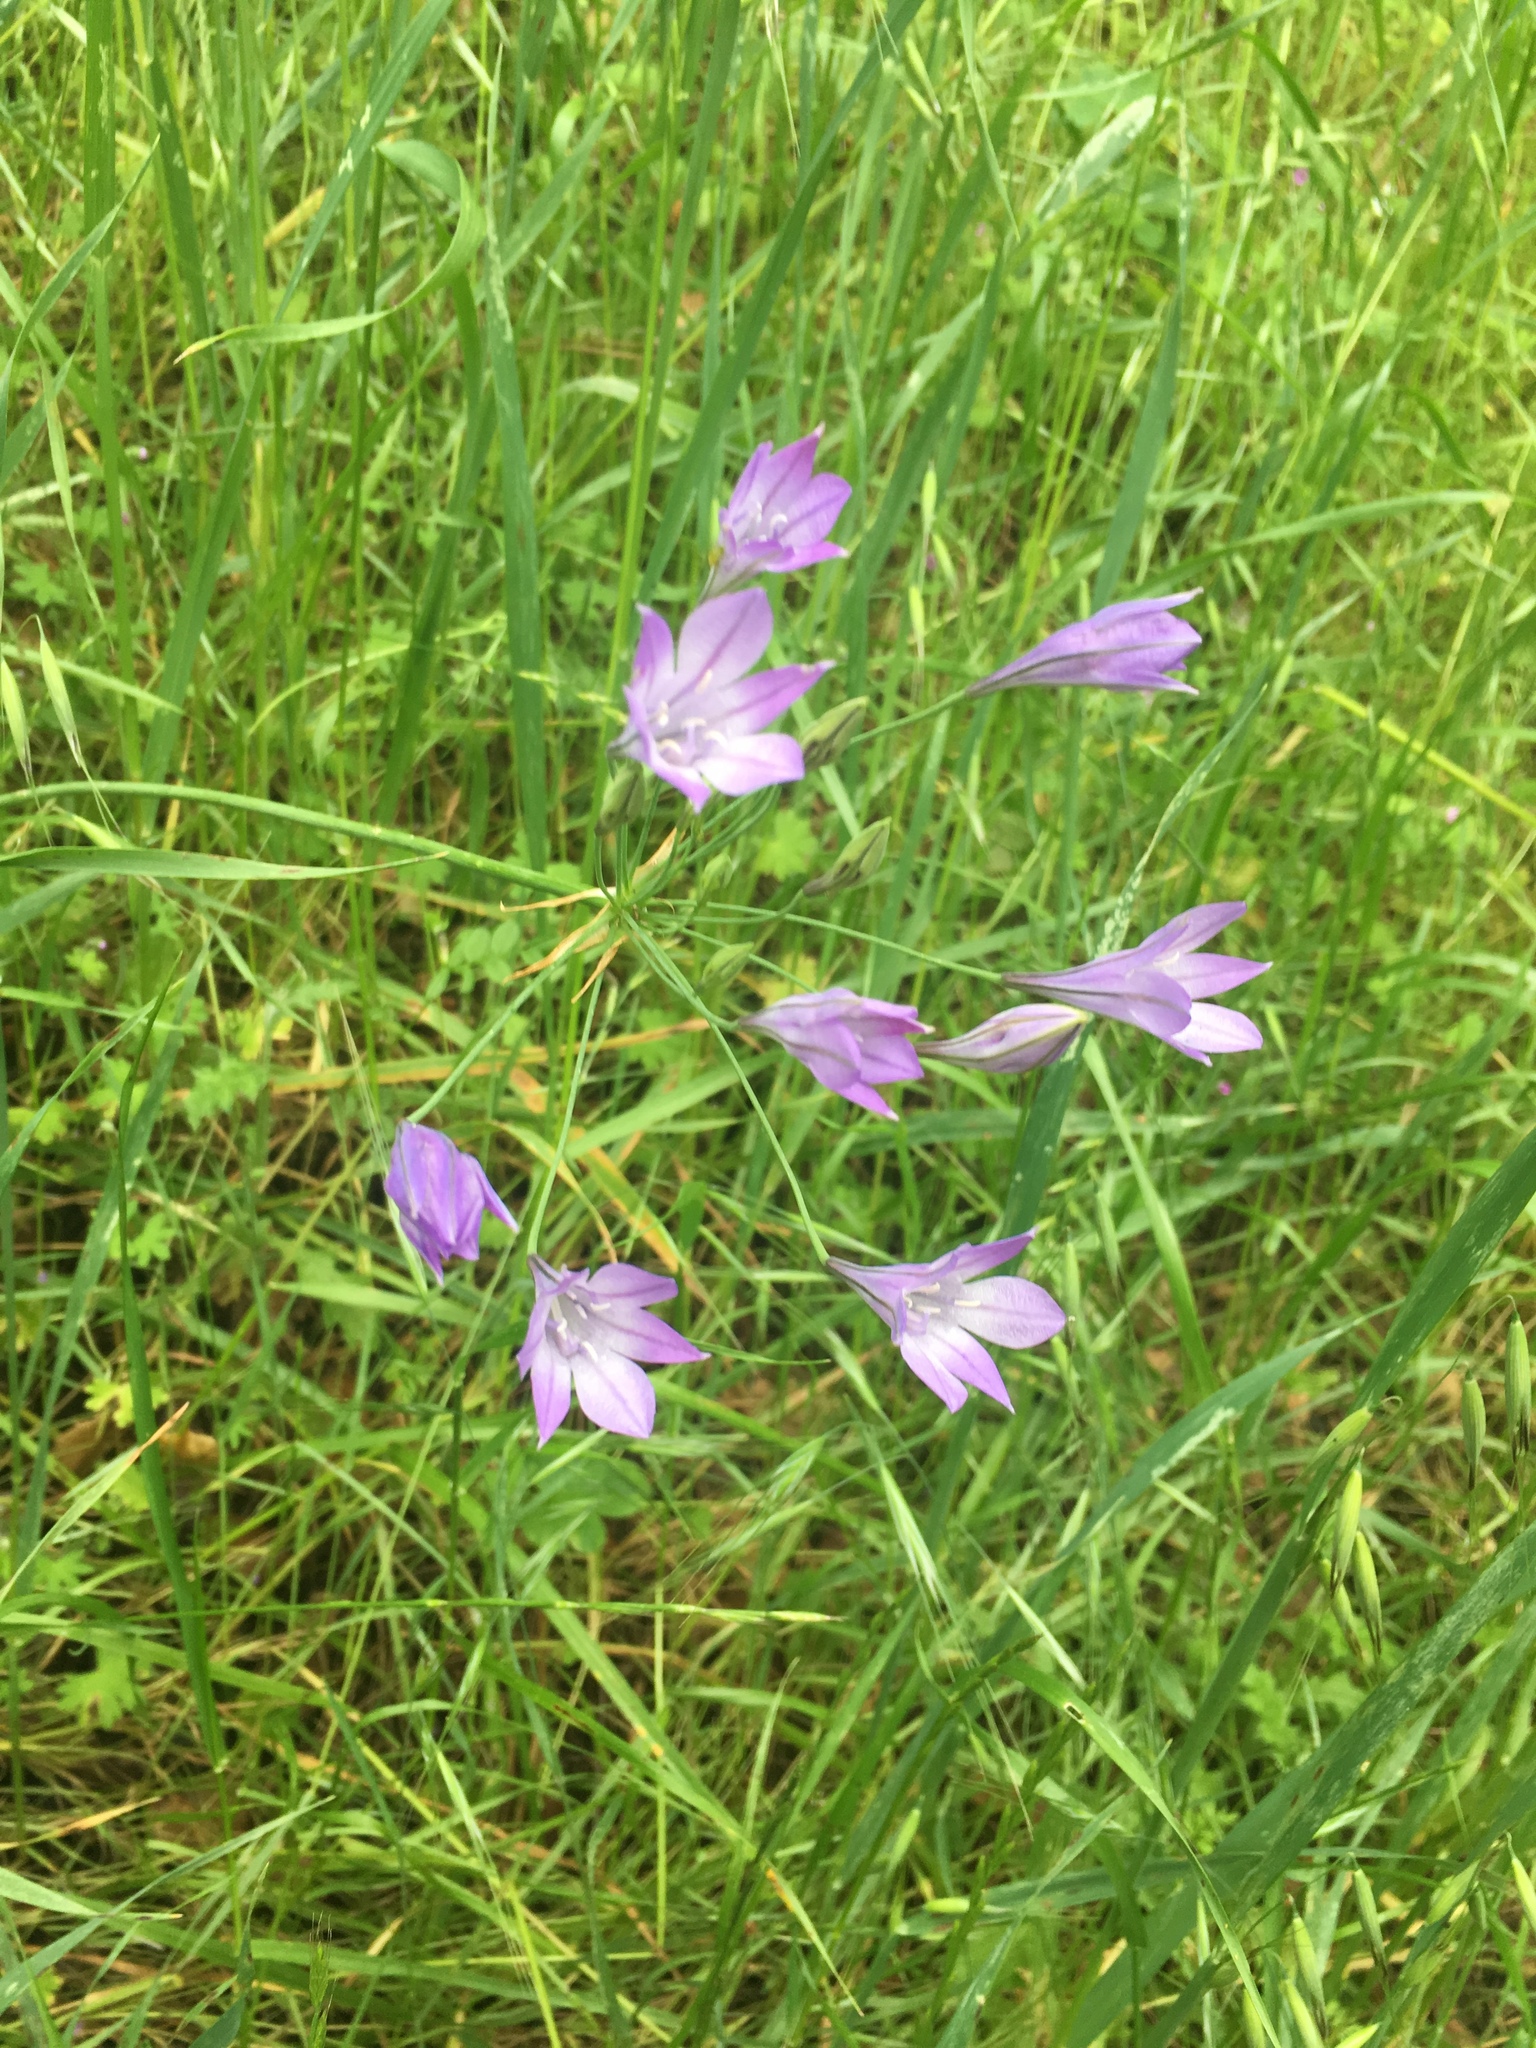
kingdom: Plantae
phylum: Tracheophyta
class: Liliopsida
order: Asparagales
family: Asparagaceae
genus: Triteleia
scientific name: Triteleia laxa
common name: Triplet-lily
